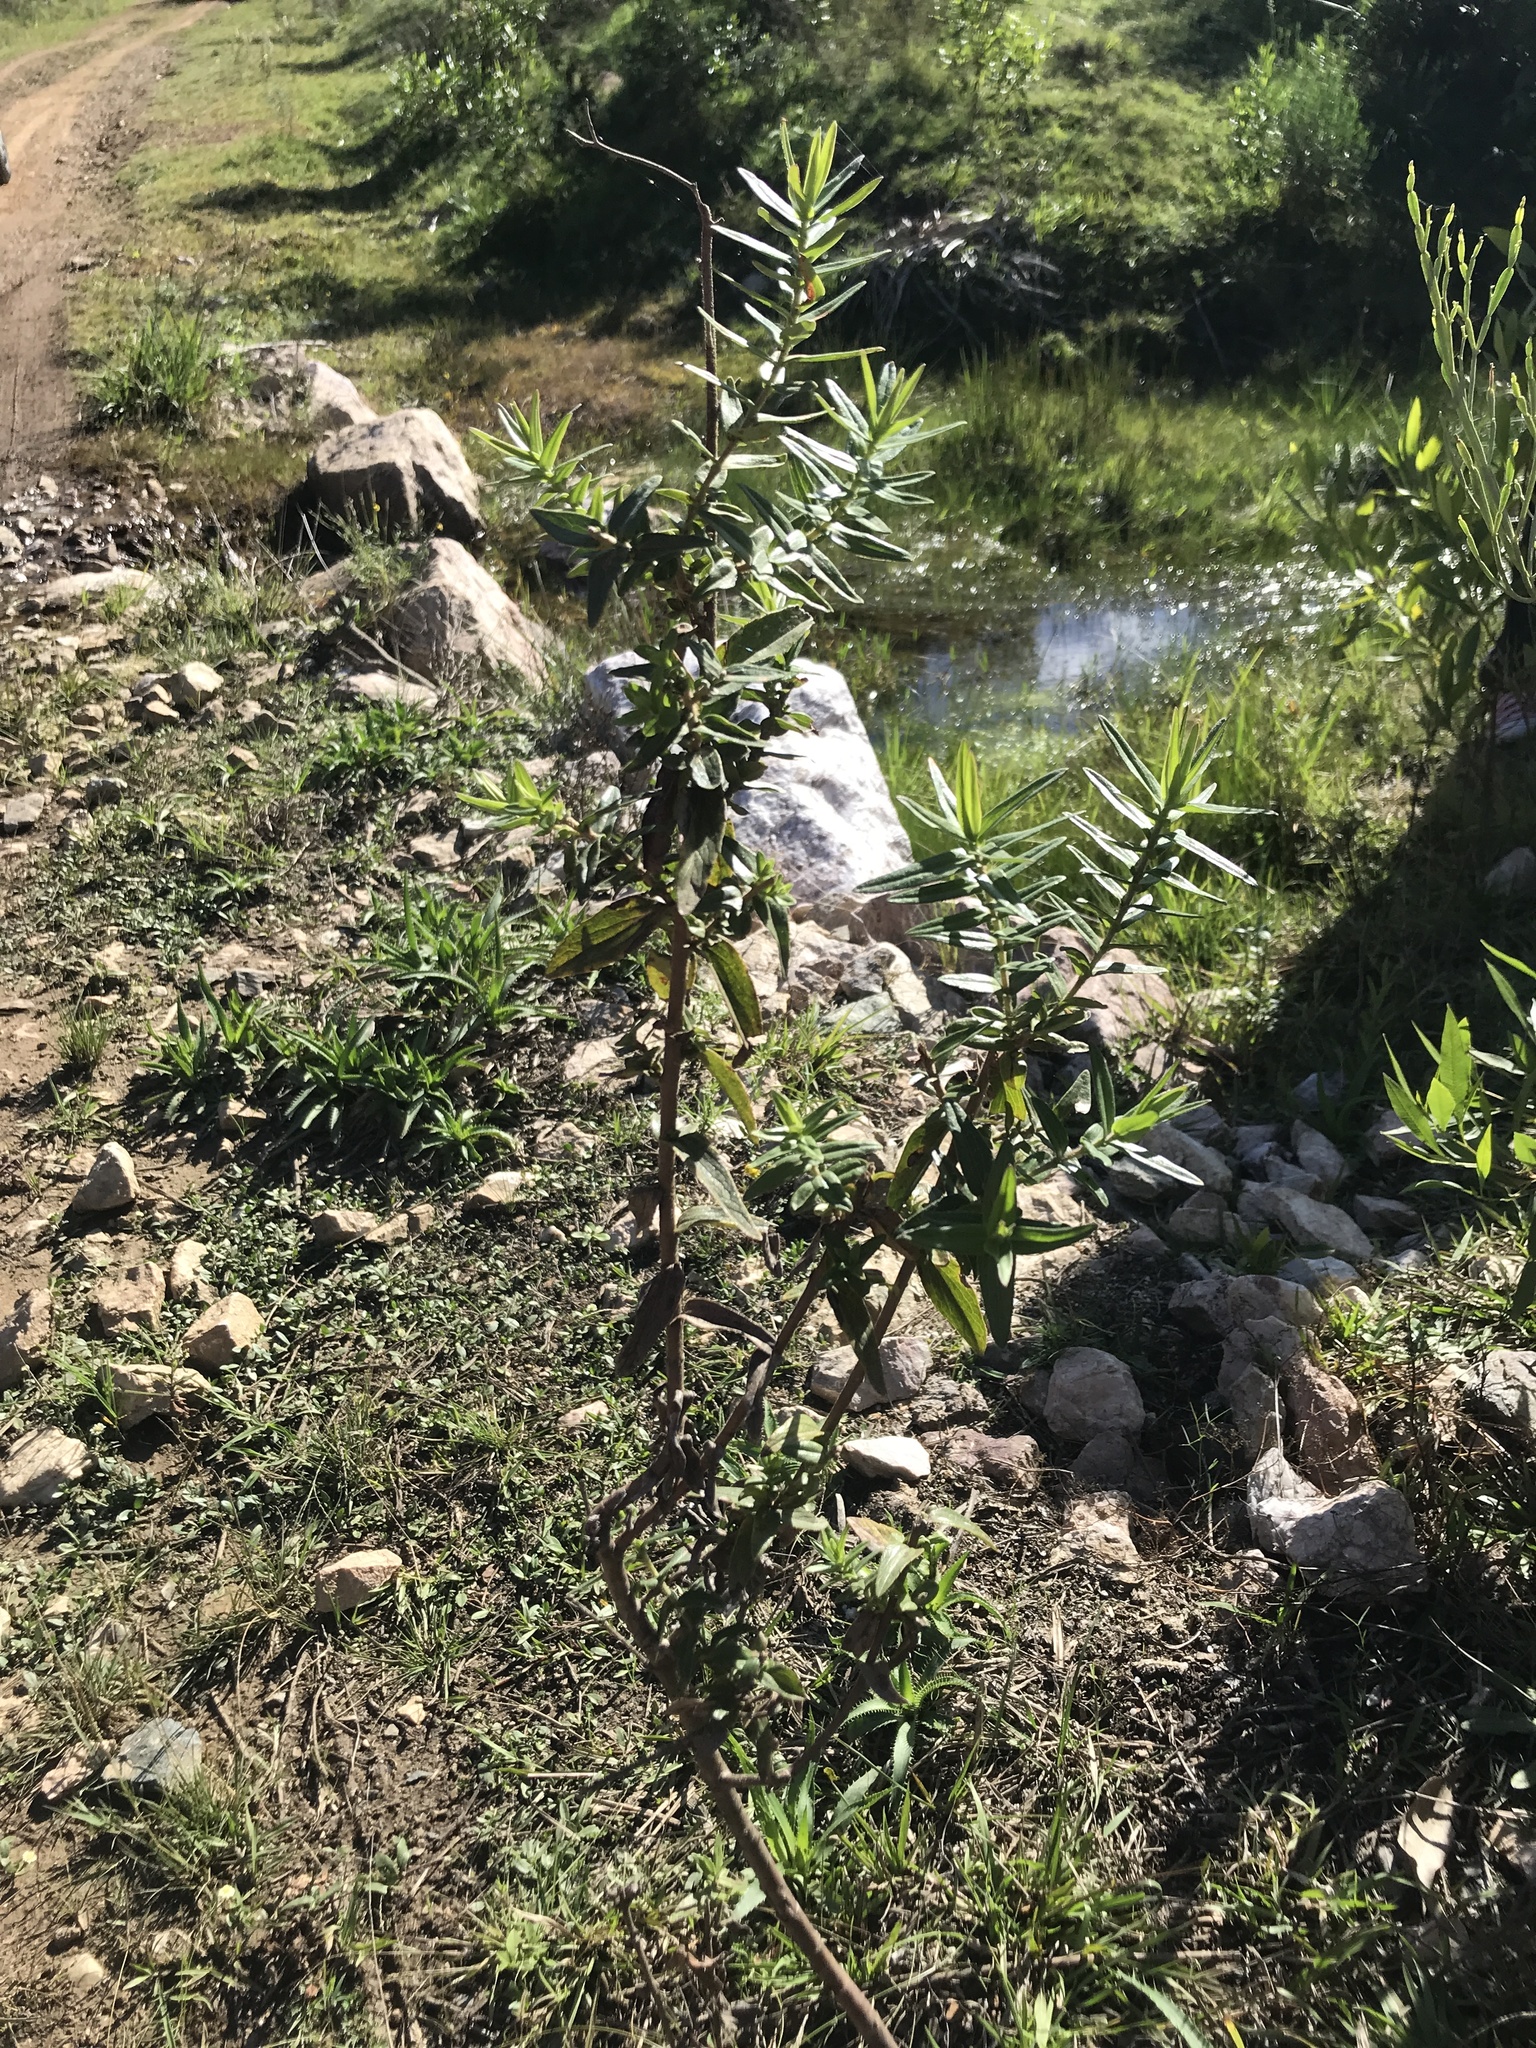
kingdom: Plantae
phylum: Tracheophyta
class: Magnoliopsida
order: Asterales
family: Asteraceae
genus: Campovassouria
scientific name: Campovassouria cruciata
